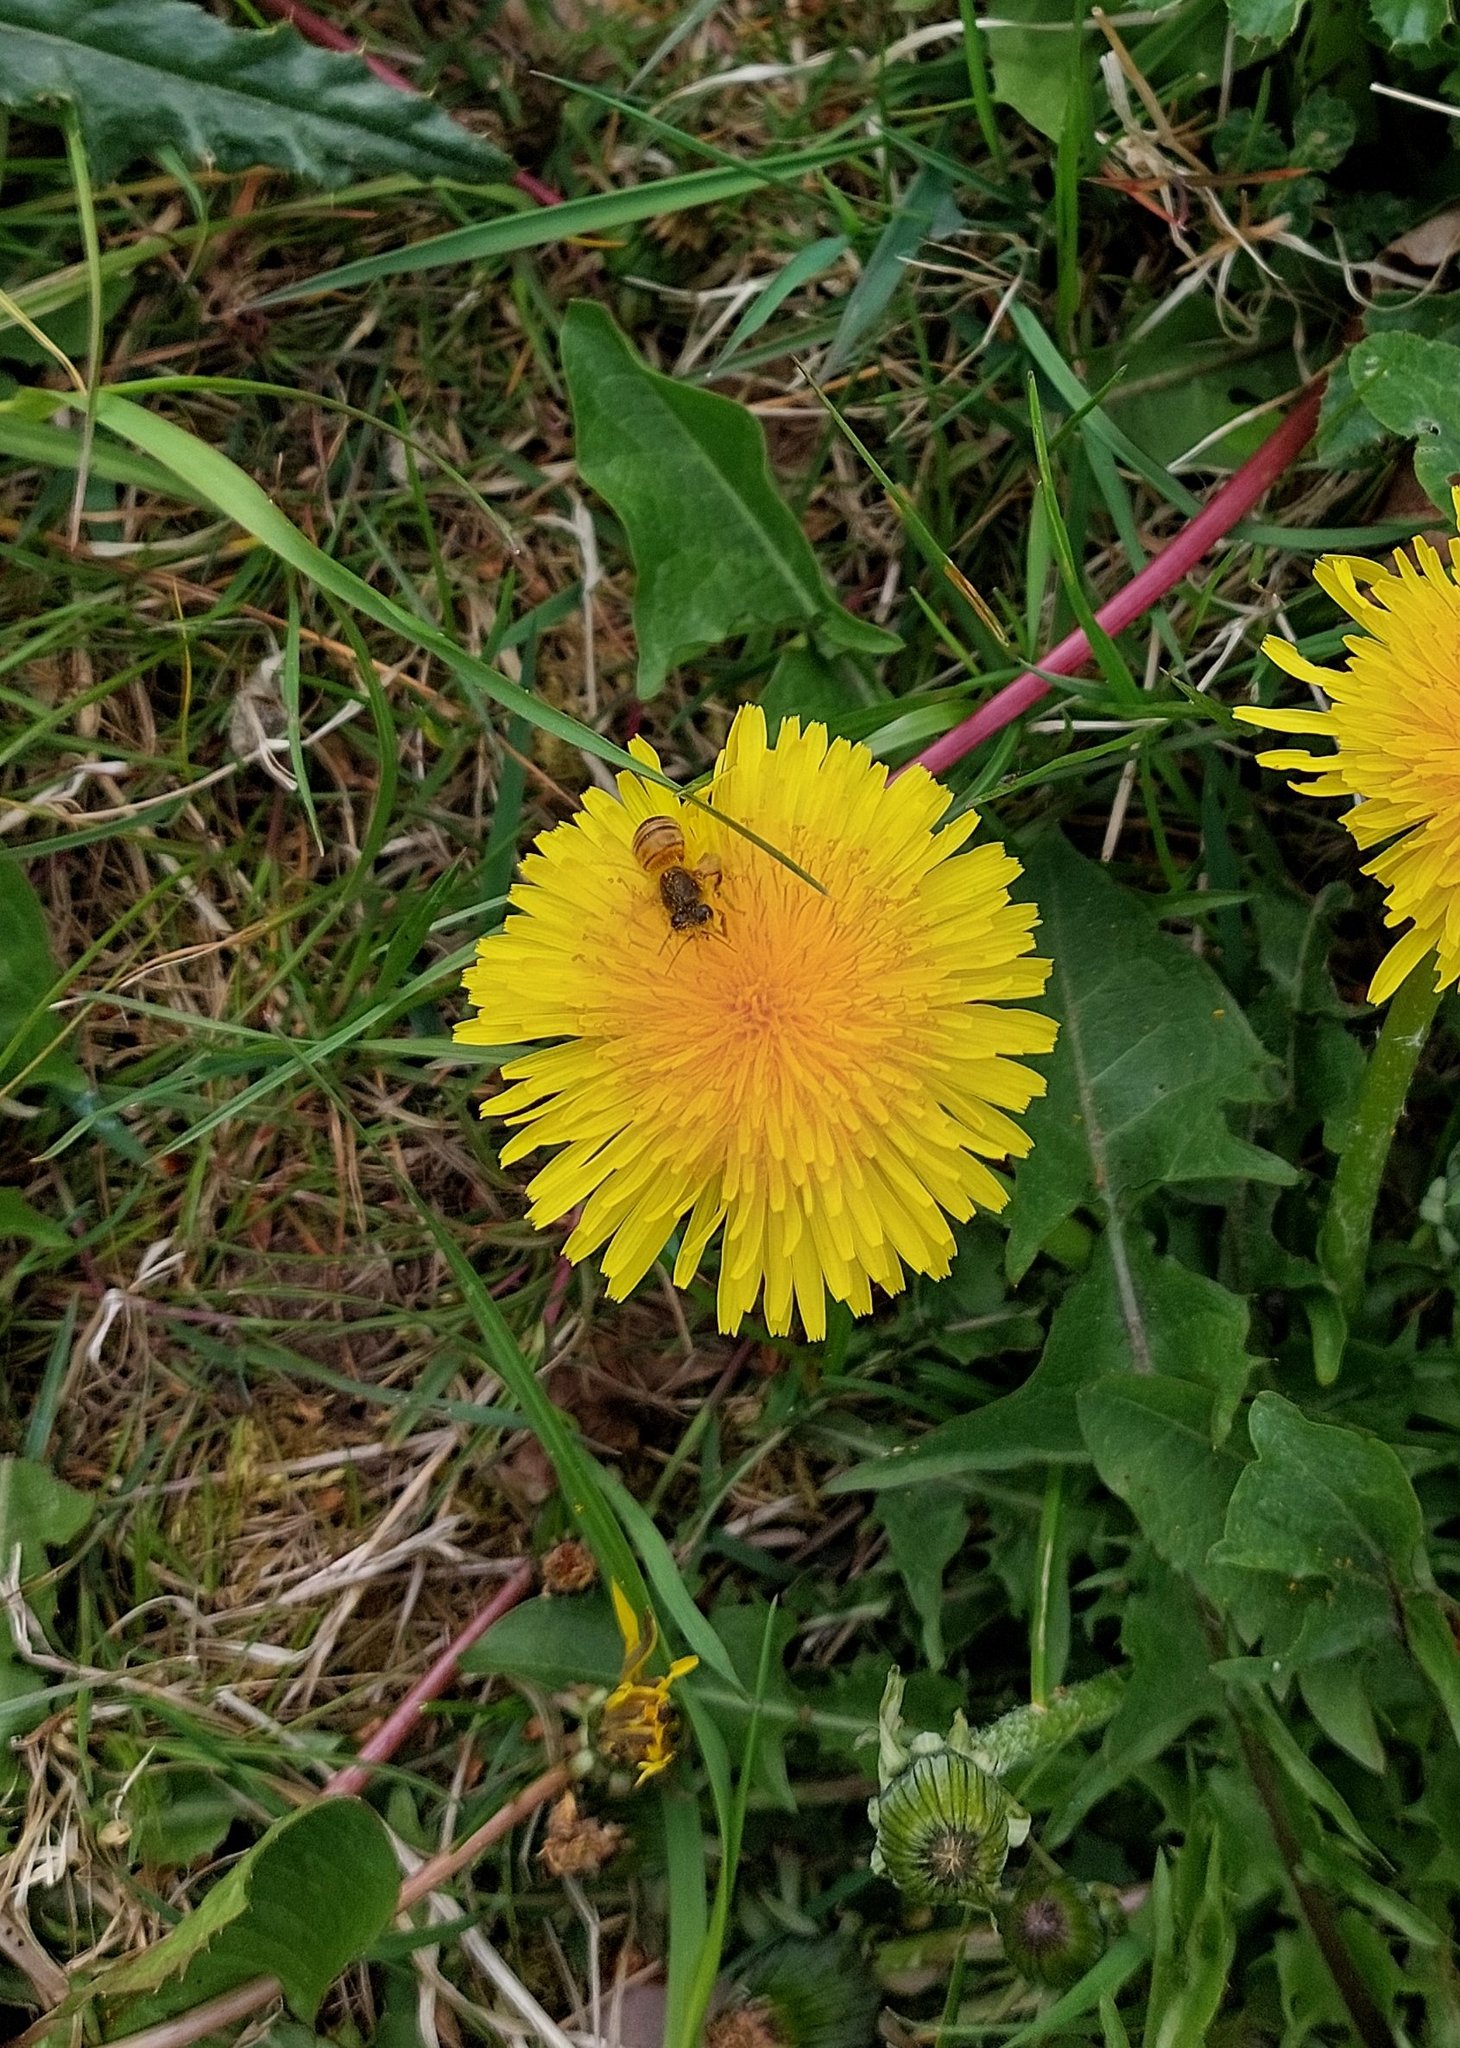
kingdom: Animalia
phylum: Arthropoda
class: Insecta
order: Hymenoptera
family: Apidae
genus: Apis
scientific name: Apis mellifera
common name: Honey bee
